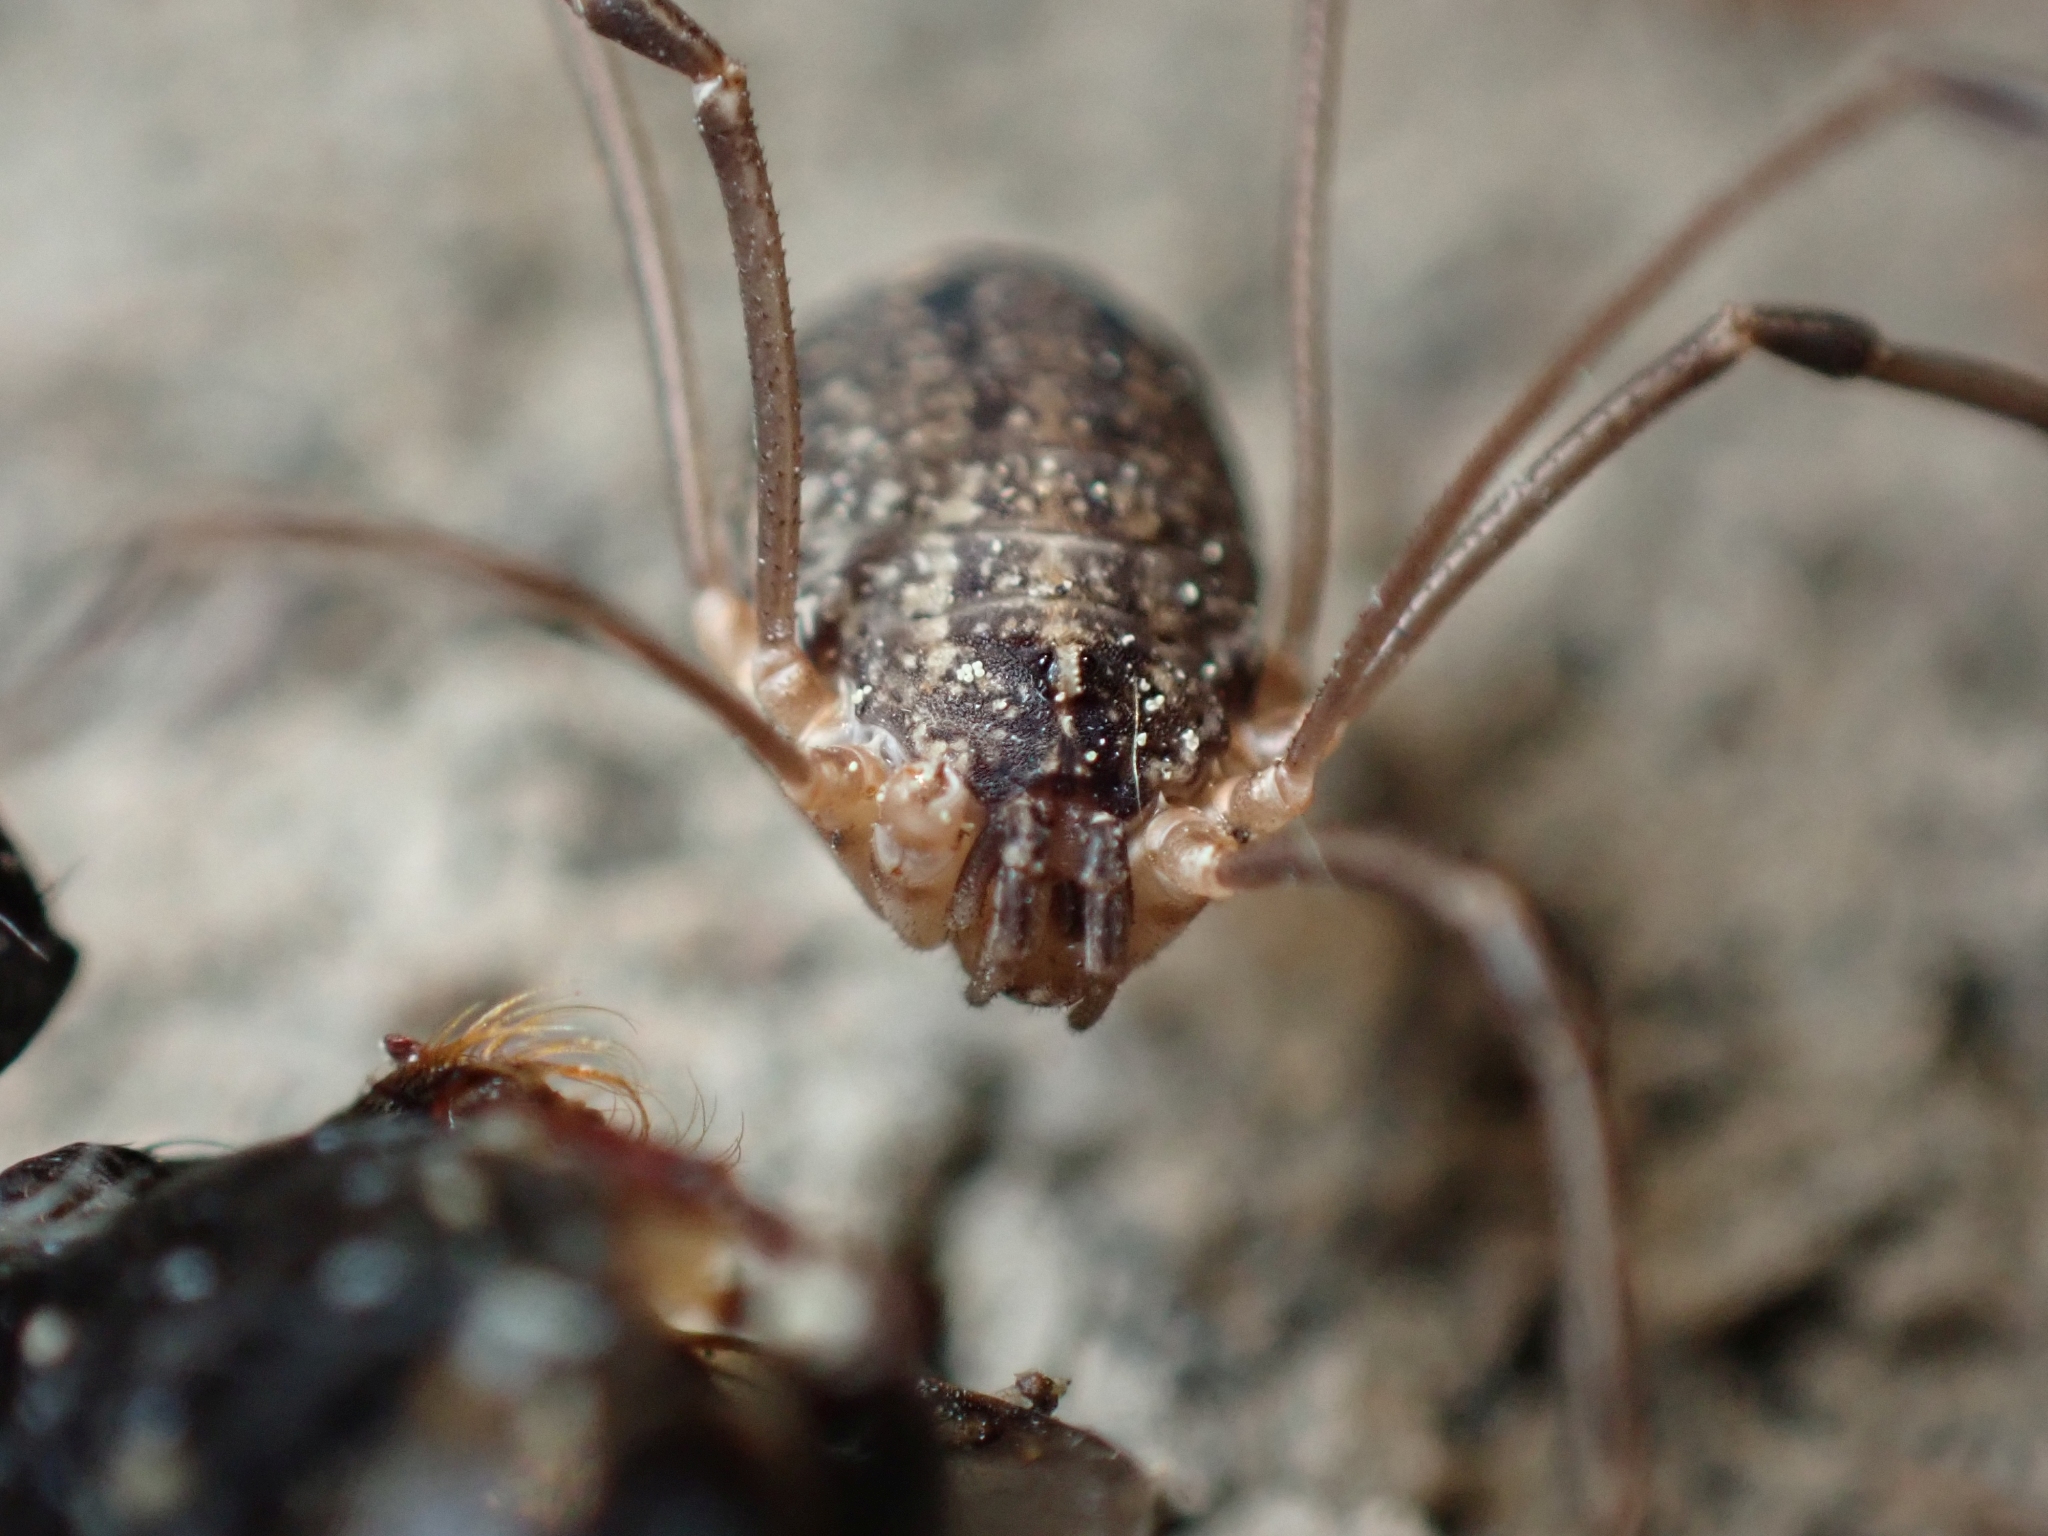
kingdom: Animalia
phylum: Arthropoda
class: Arachnida
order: Opiliones
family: Sclerosomatidae
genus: Togwoteeus
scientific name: Togwoteeus biceps
